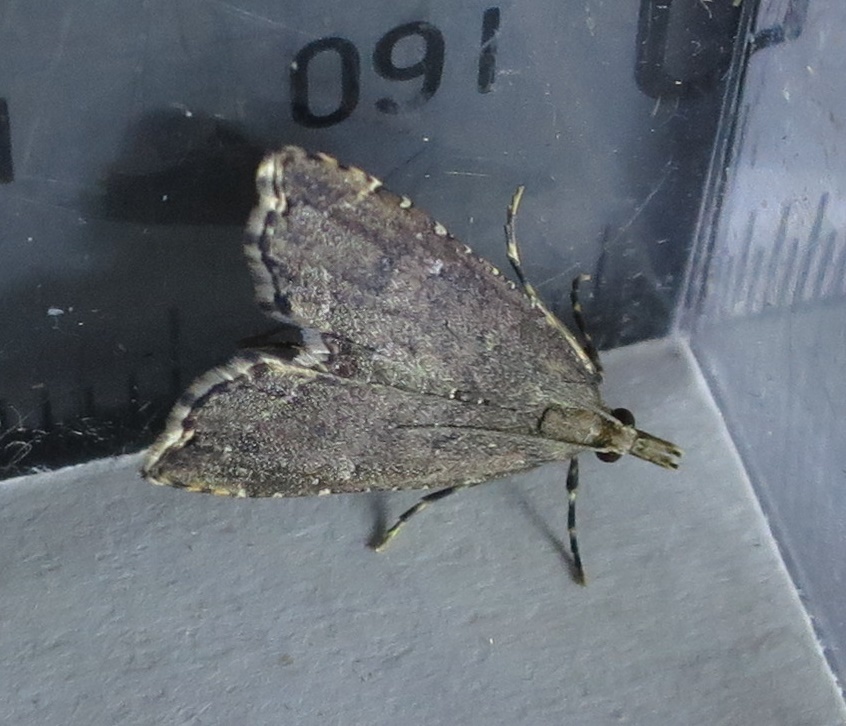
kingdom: Animalia
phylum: Arthropoda
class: Insecta
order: Lepidoptera
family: Crambidae
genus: Diplopseustis
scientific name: Diplopseustis perieresalis
